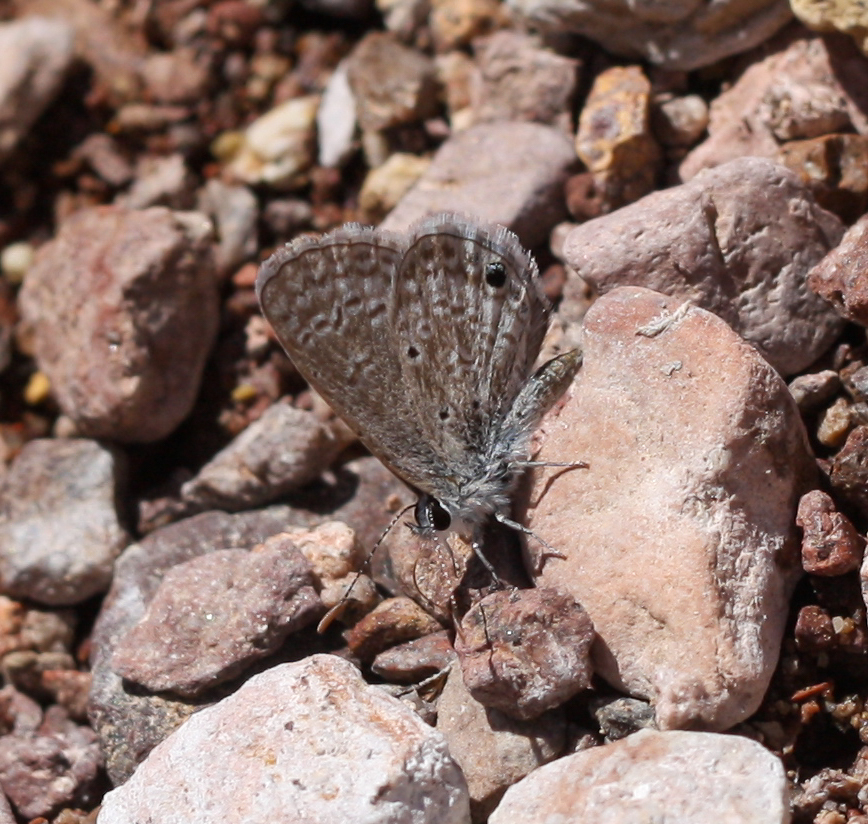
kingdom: Animalia
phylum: Arthropoda
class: Insecta
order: Lepidoptera
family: Lycaenidae
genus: Hemiargus
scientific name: Hemiargus ceraunus
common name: Ceraunus blue
